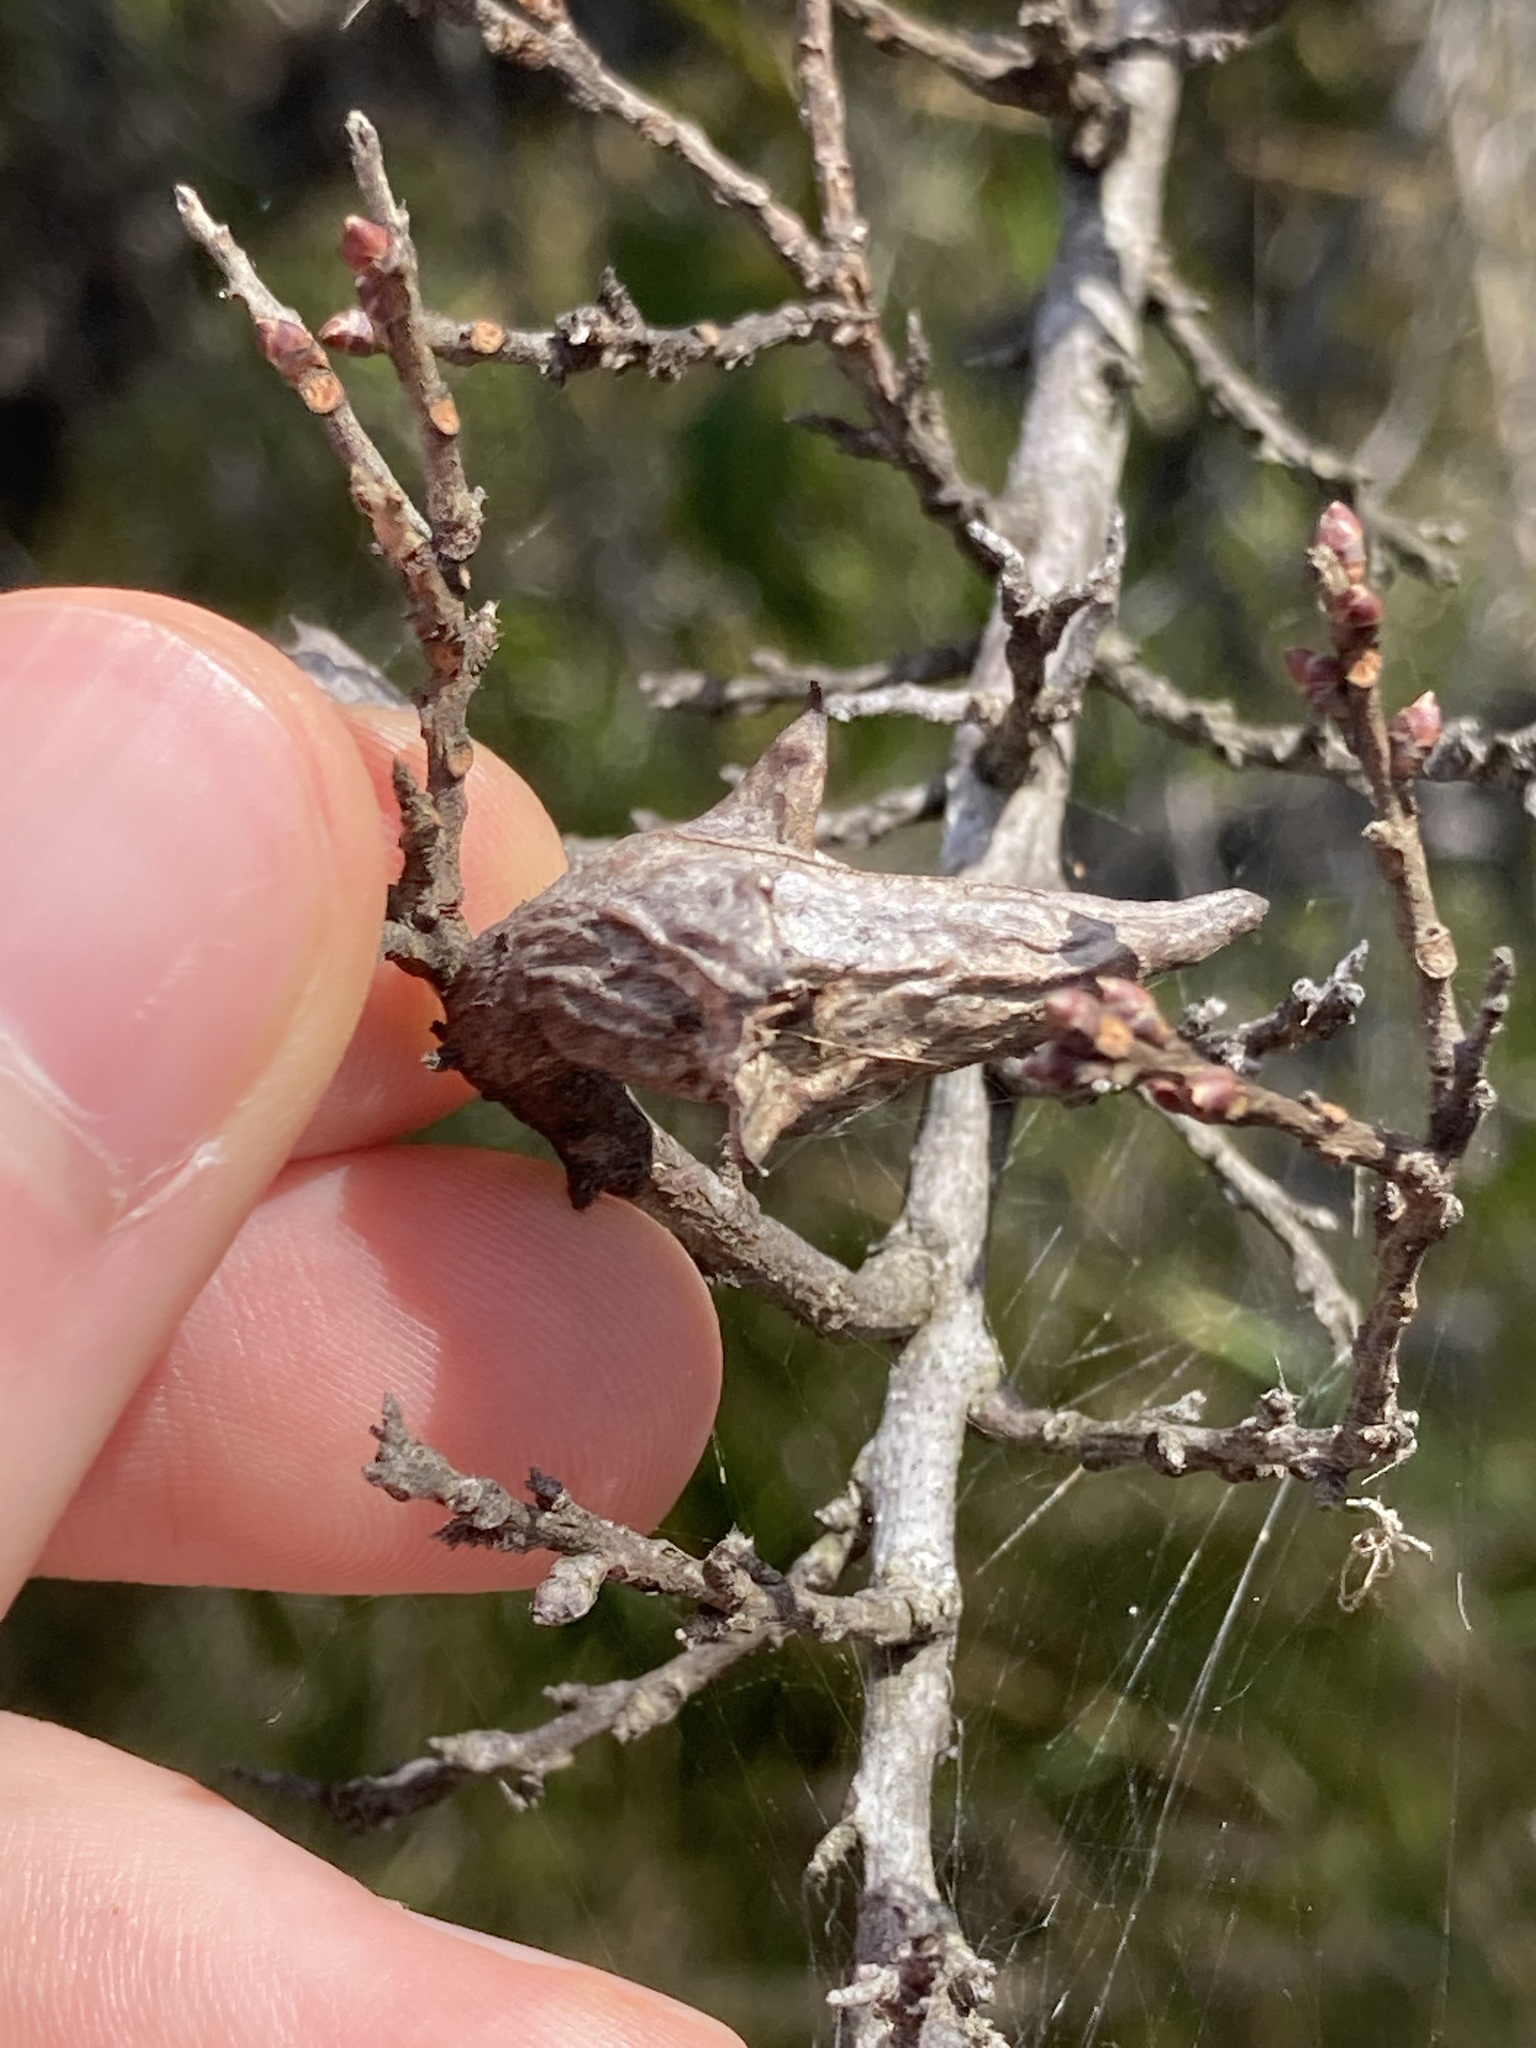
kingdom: Plantae
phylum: Tracheophyta
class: Magnoliopsida
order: Proteales
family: Proteaceae
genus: Hakea
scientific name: Hakea teretifolia
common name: Dagger hakea
